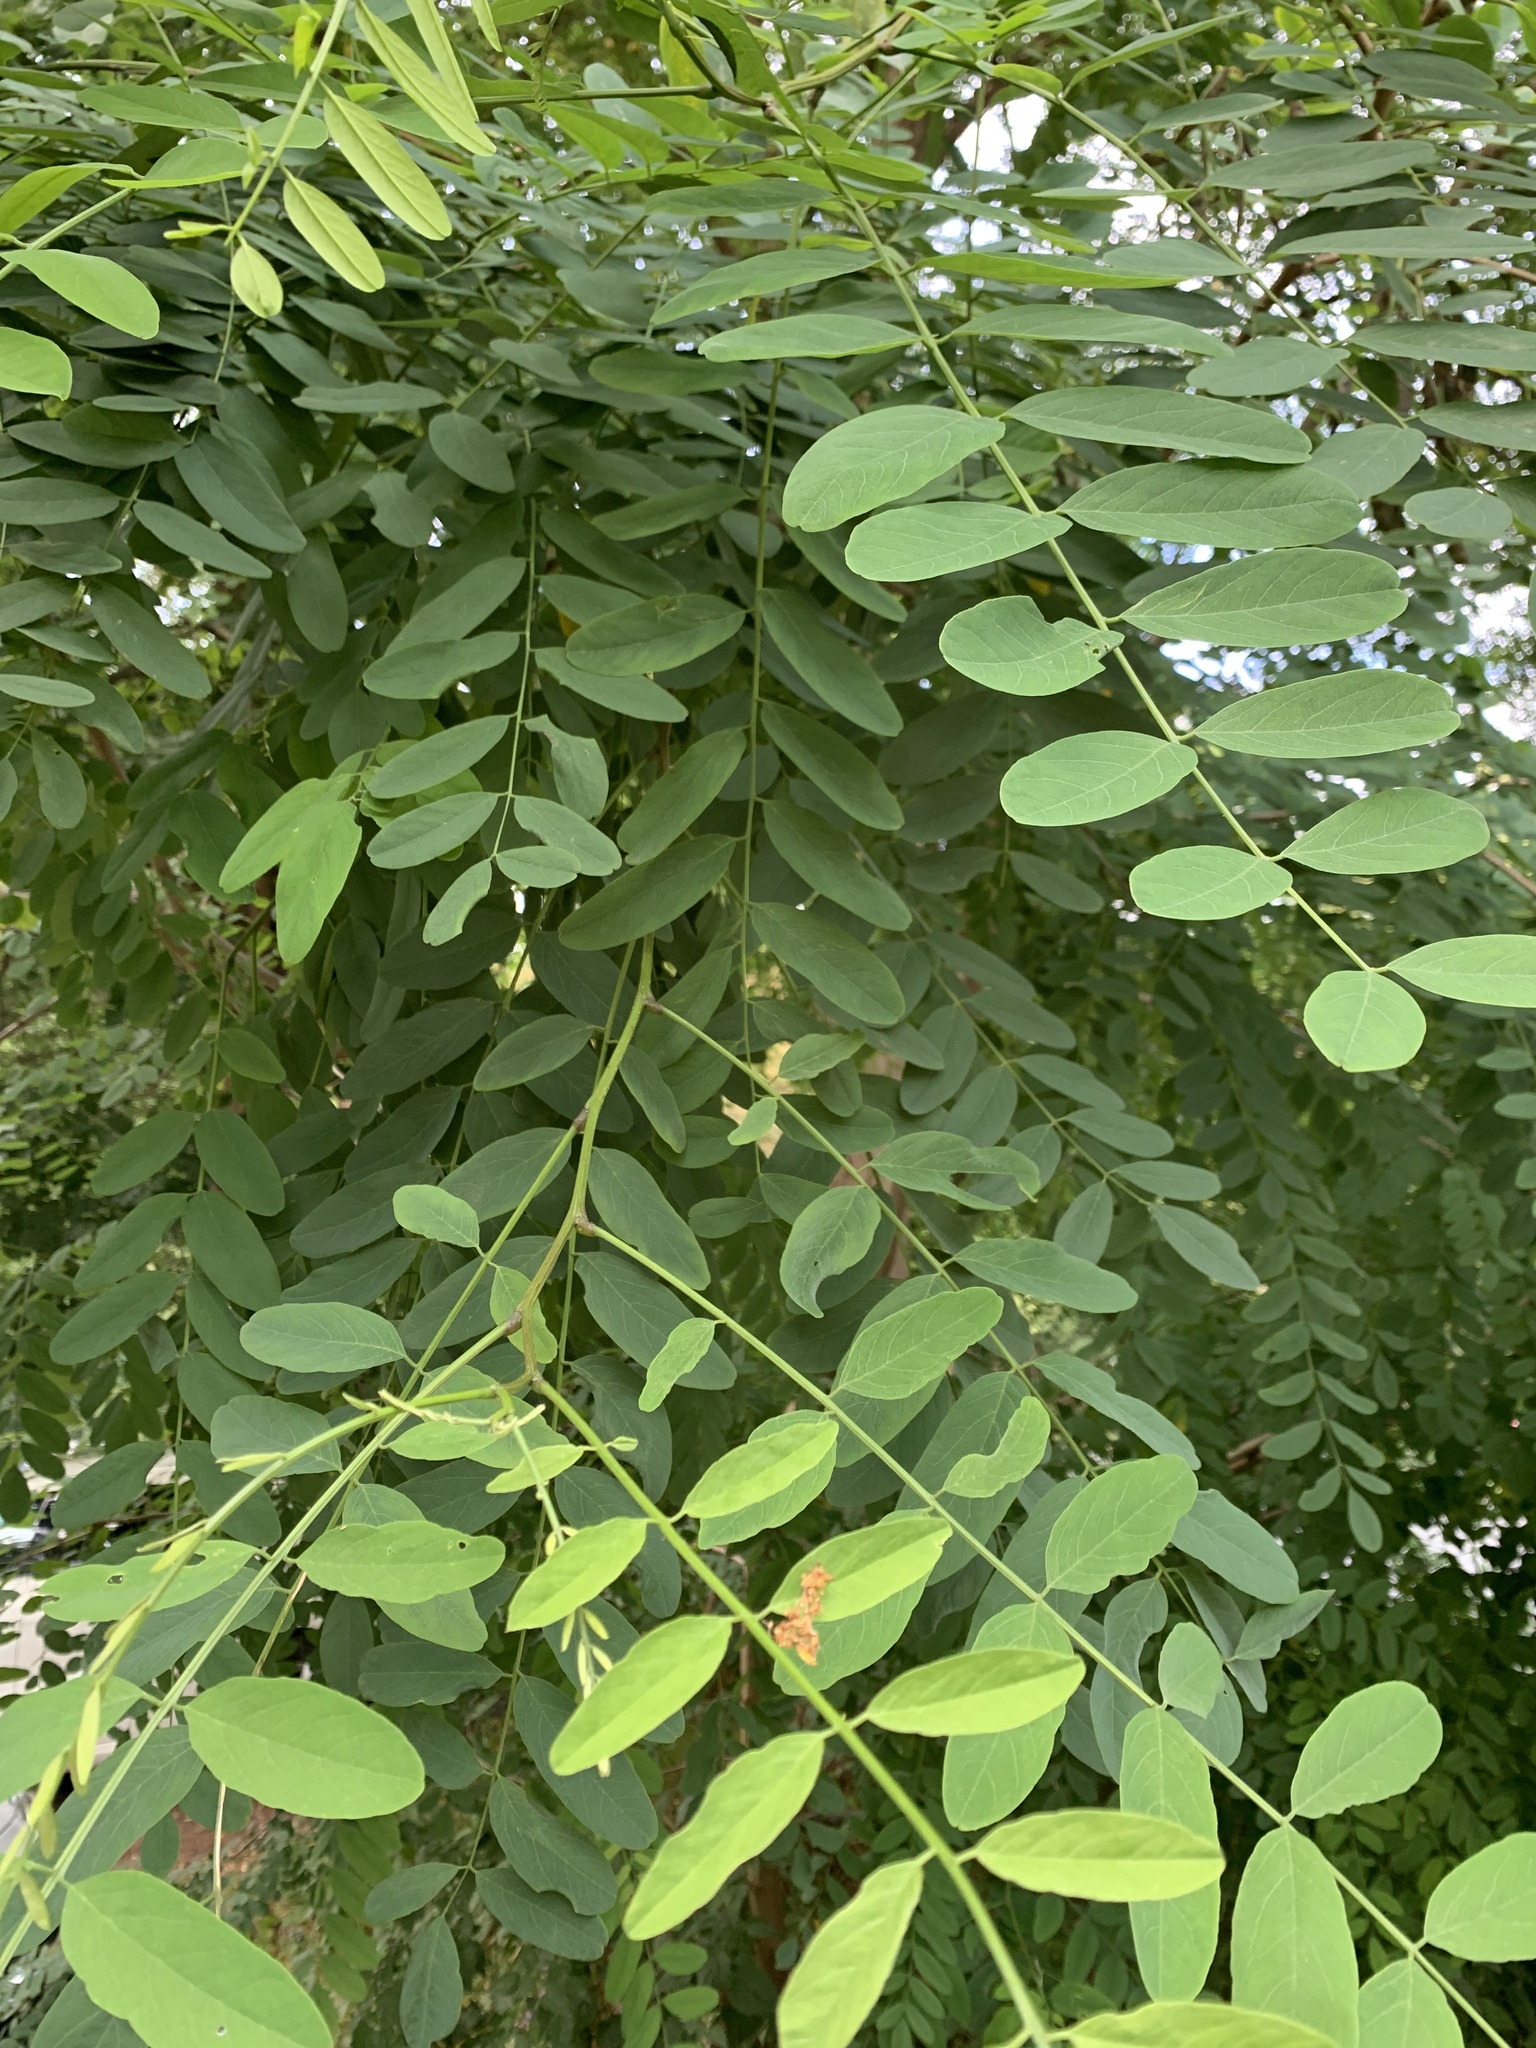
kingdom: Plantae
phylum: Tracheophyta
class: Magnoliopsida
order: Fabales
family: Fabaceae
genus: Robinia
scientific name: Robinia pseudoacacia
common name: Black locust
